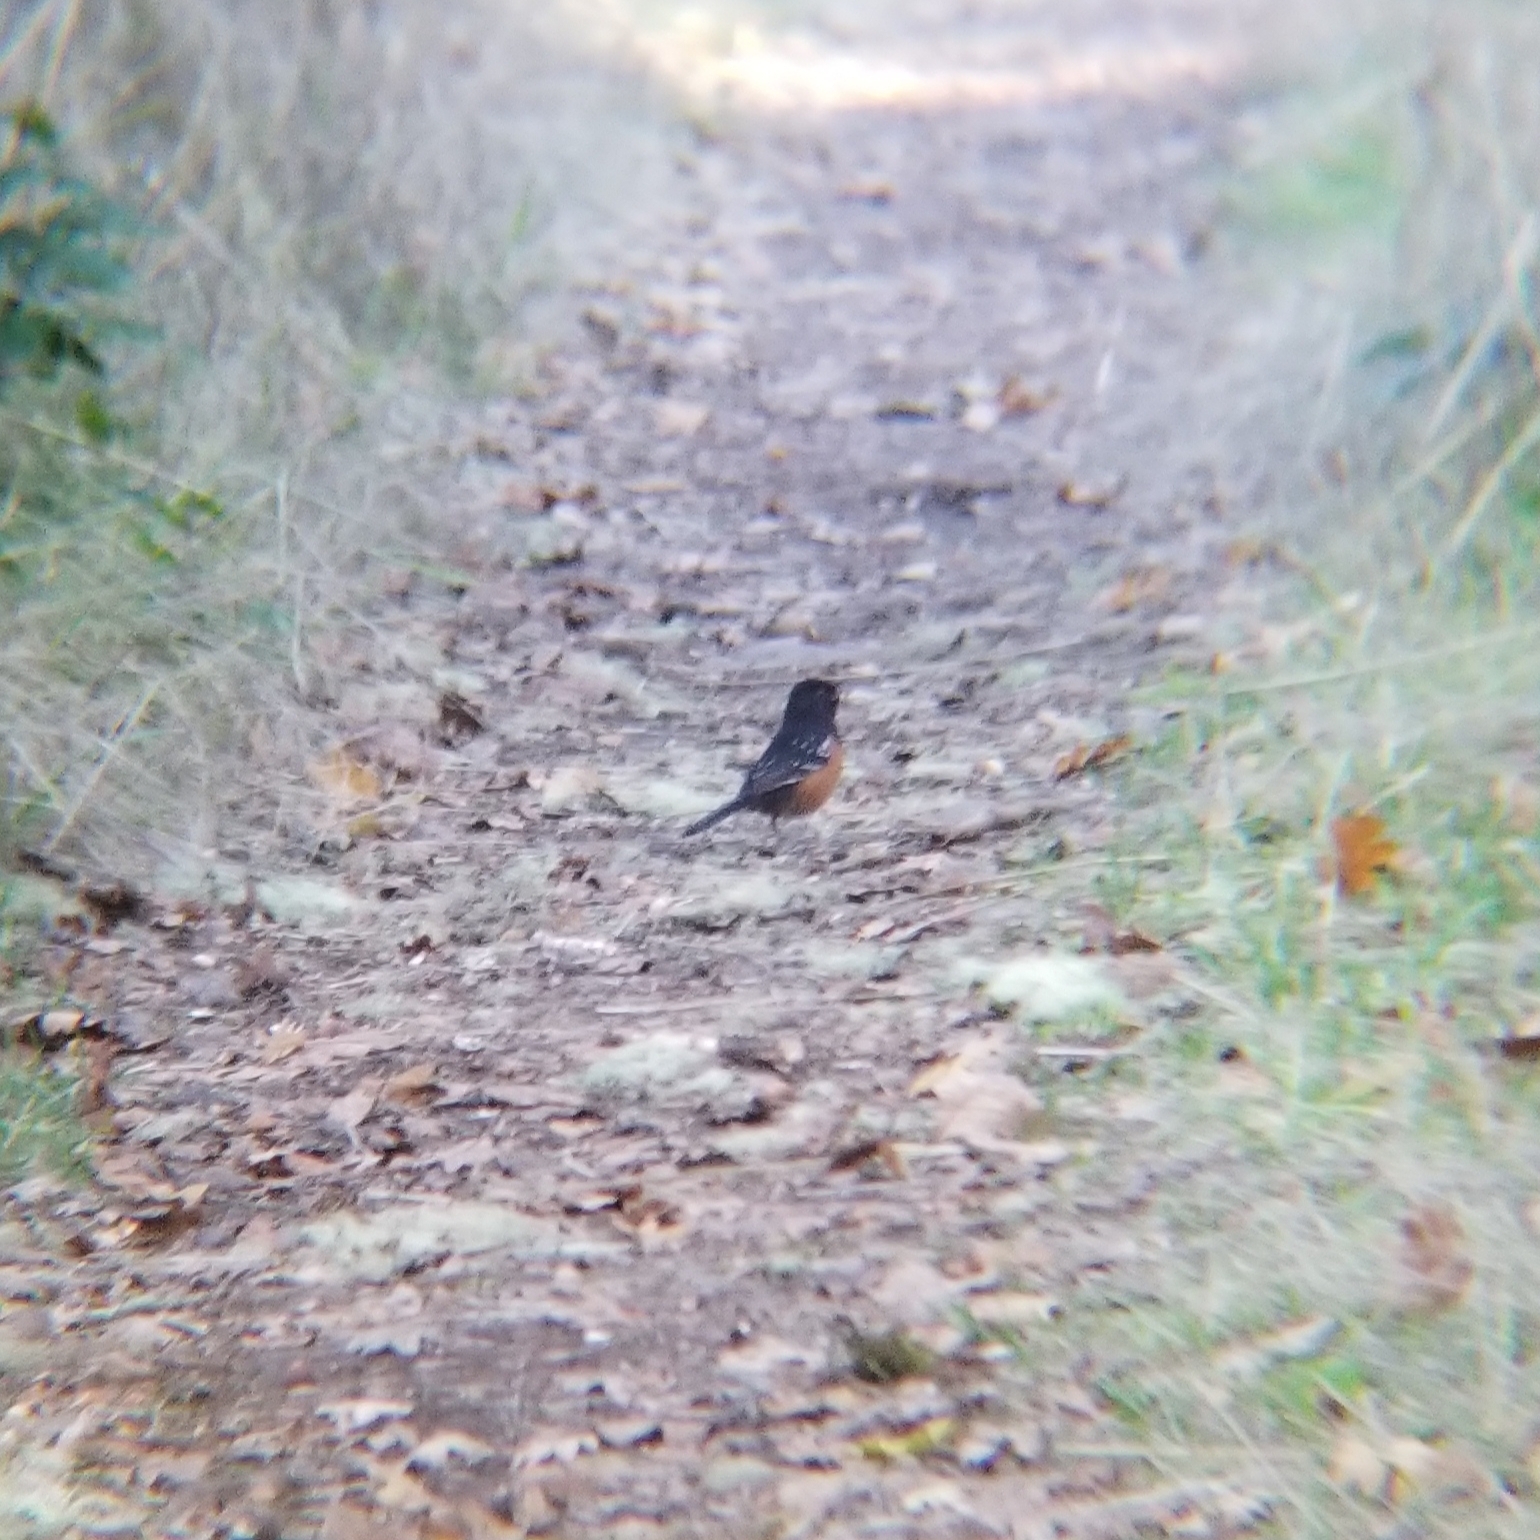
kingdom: Animalia
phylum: Chordata
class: Aves
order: Passeriformes
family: Passerellidae
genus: Pipilo
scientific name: Pipilo maculatus
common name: Spotted towhee
